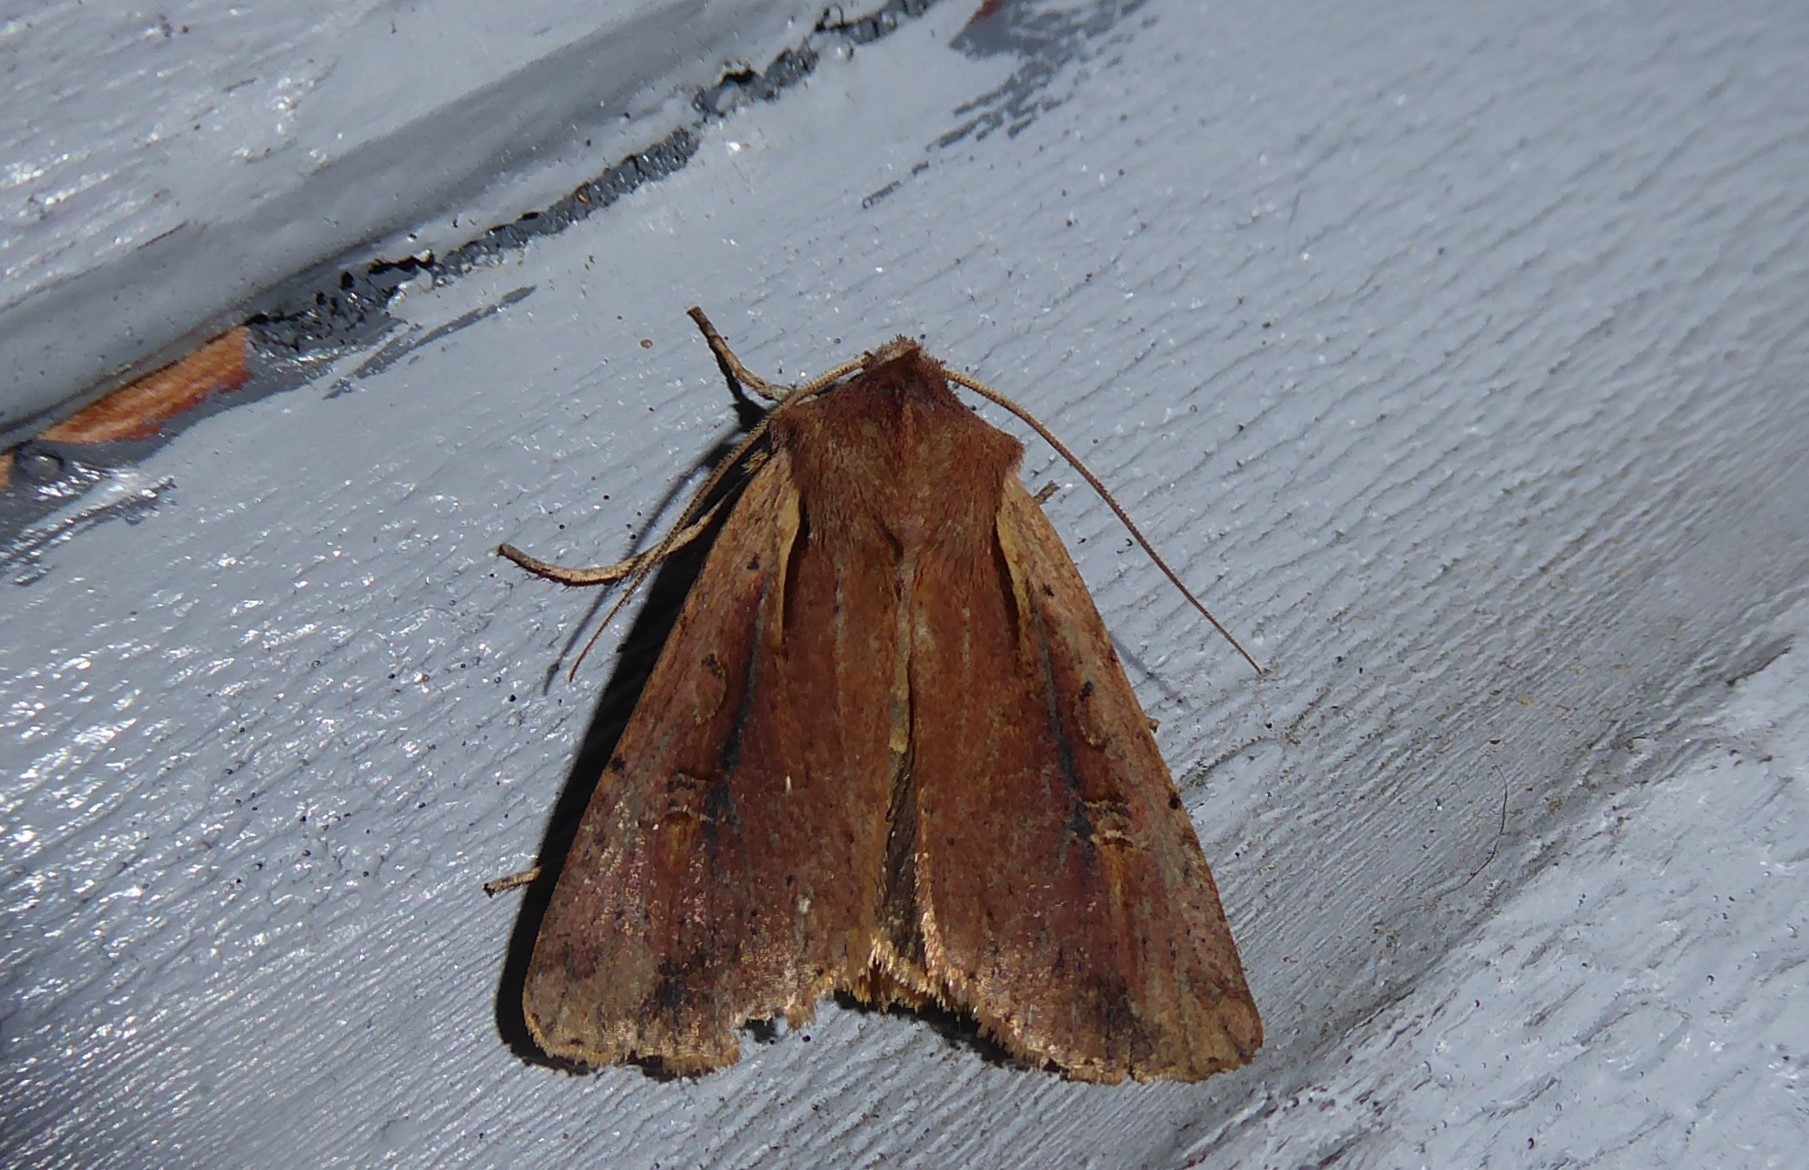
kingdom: Animalia
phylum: Arthropoda
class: Insecta
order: Lepidoptera
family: Noctuidae
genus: Ichneutica
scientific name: Ichneutica atristriga
